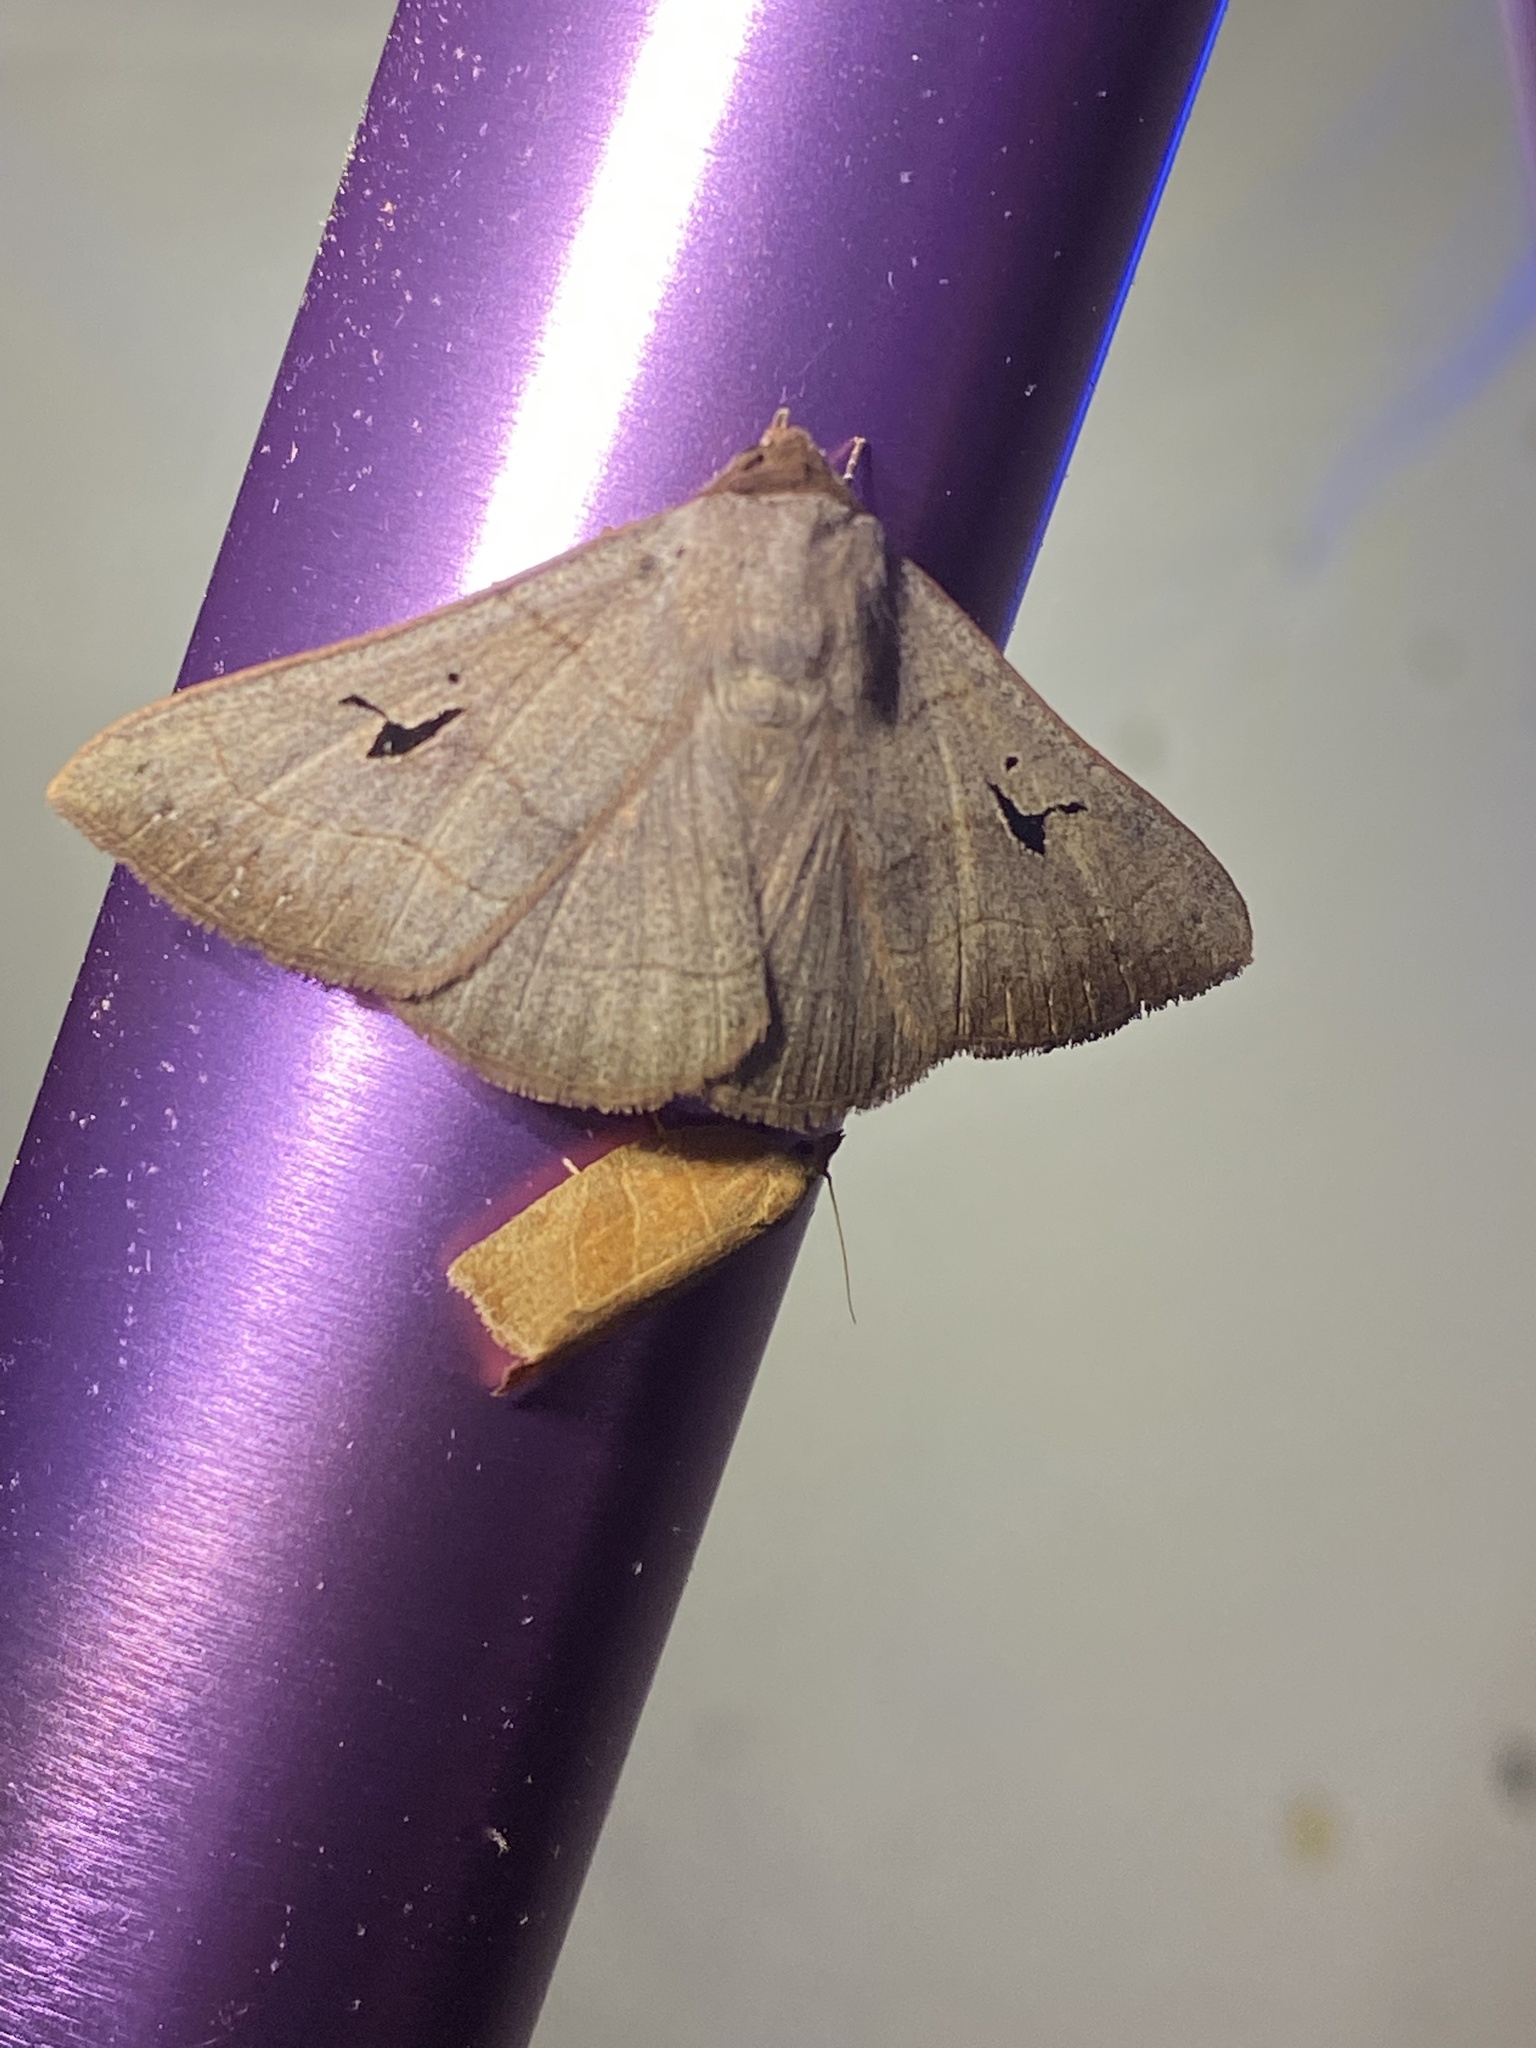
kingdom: Animalia
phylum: Arthropoda
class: Insecta
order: Lepidoptera
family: Erebidae
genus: Panopoda
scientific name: Panopoda carneicosta
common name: Brown panopoda moth
